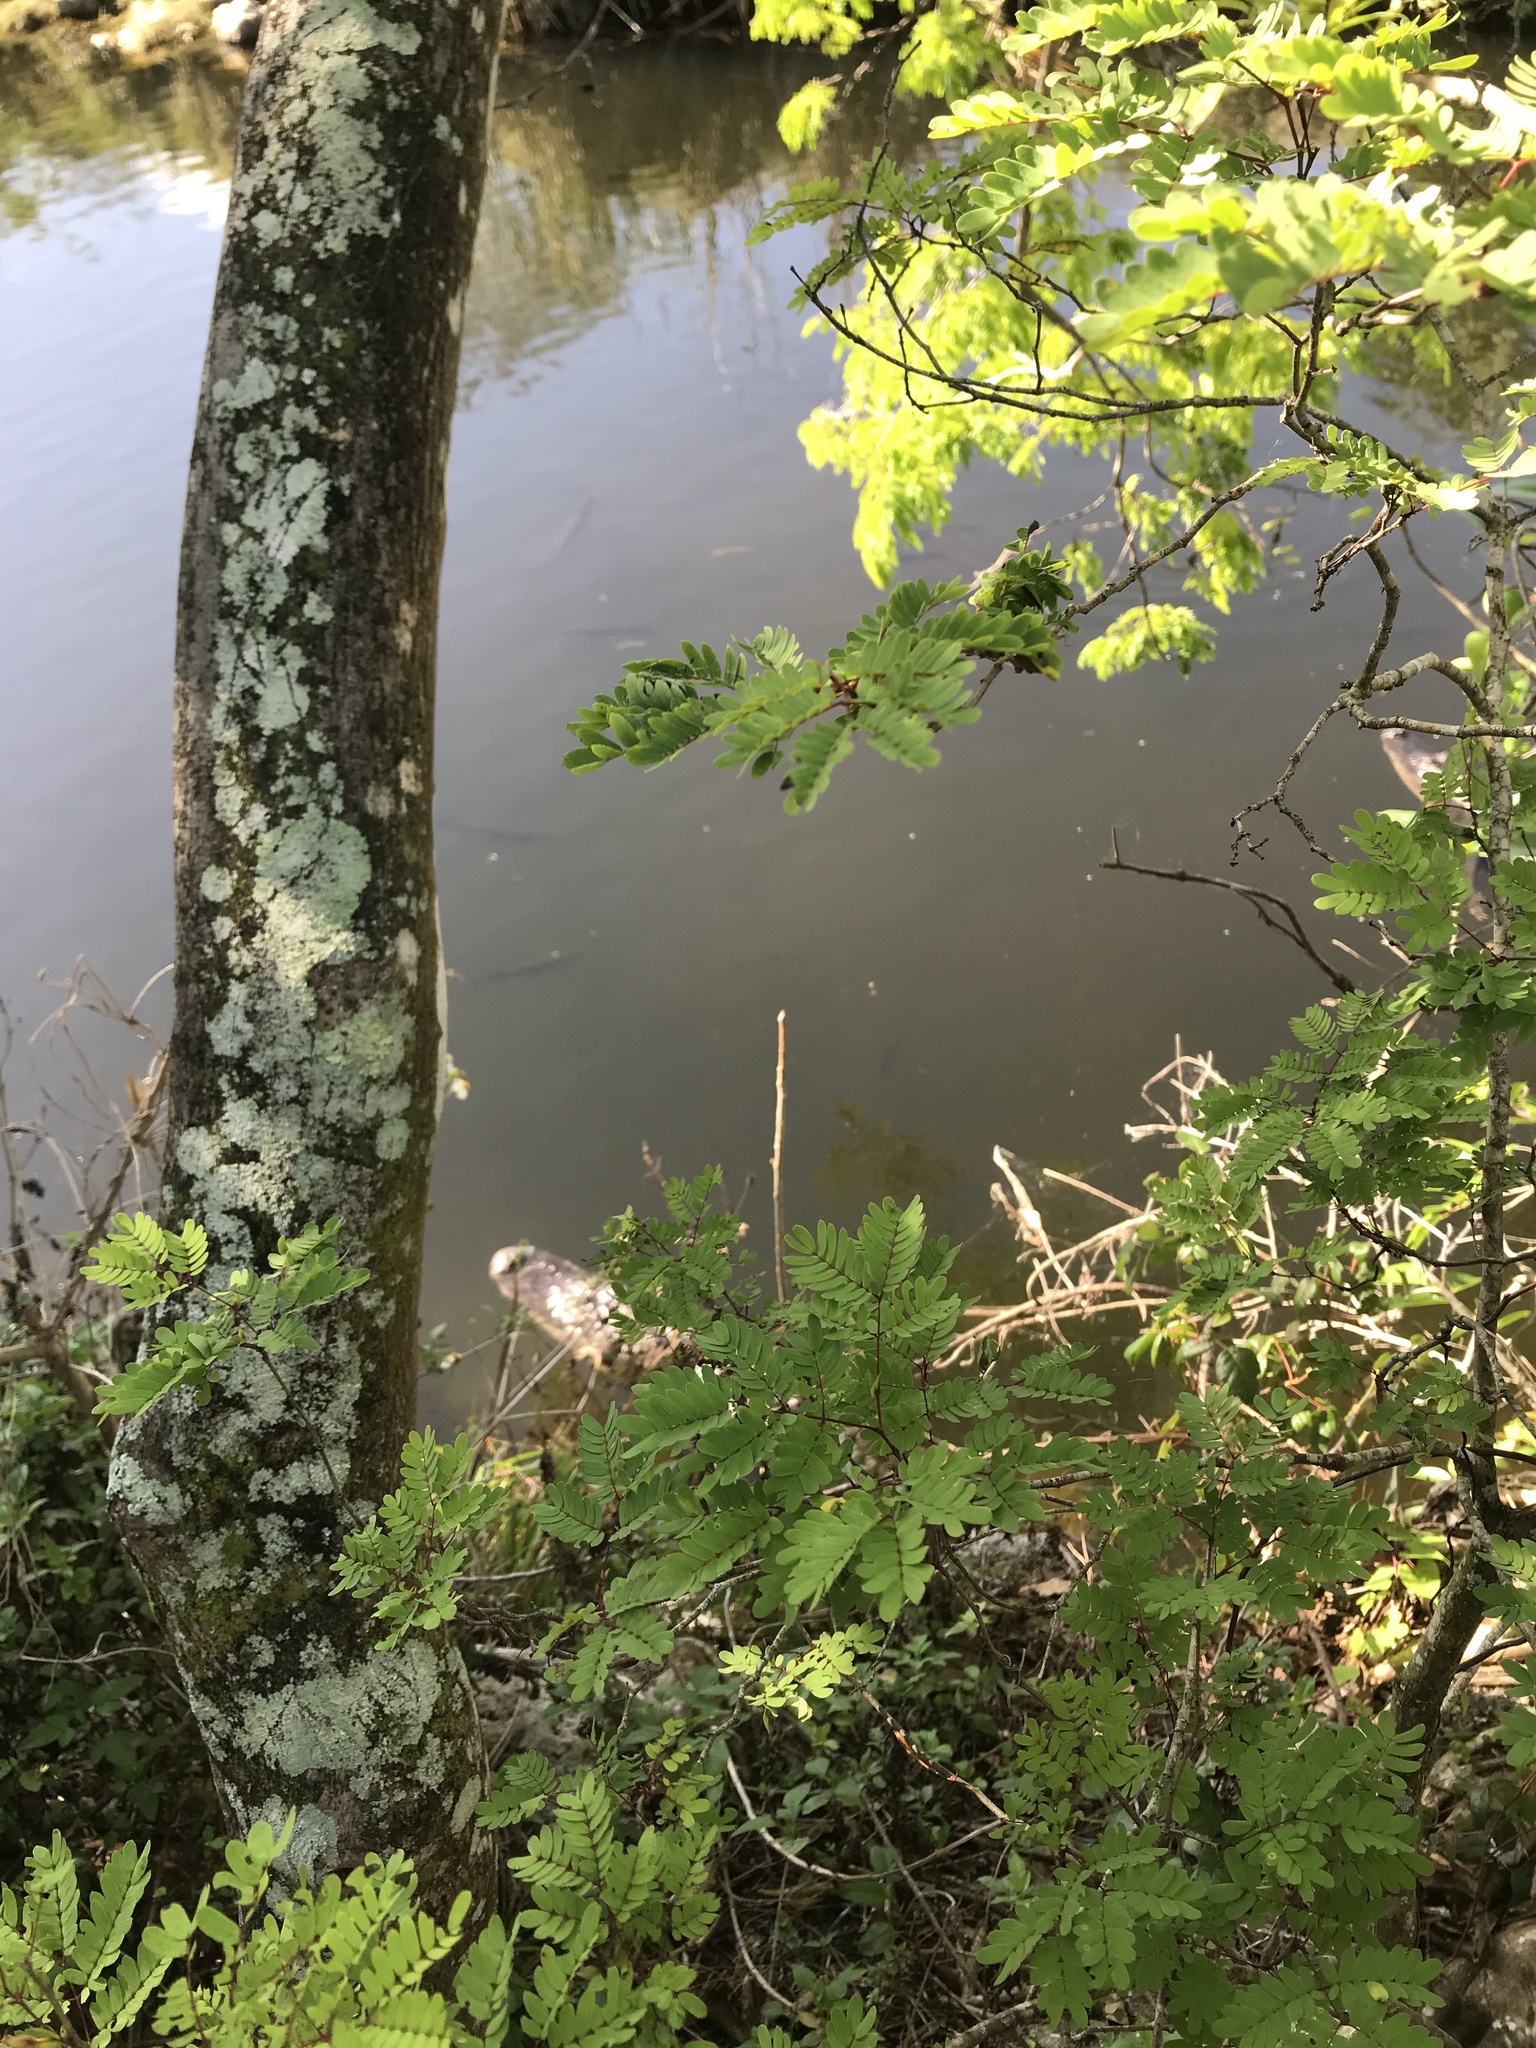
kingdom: Animalia
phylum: Chordata
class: Crocodylia
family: Alligatoridae
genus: Alligator
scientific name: Alligator mississippiensis
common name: American alligator
